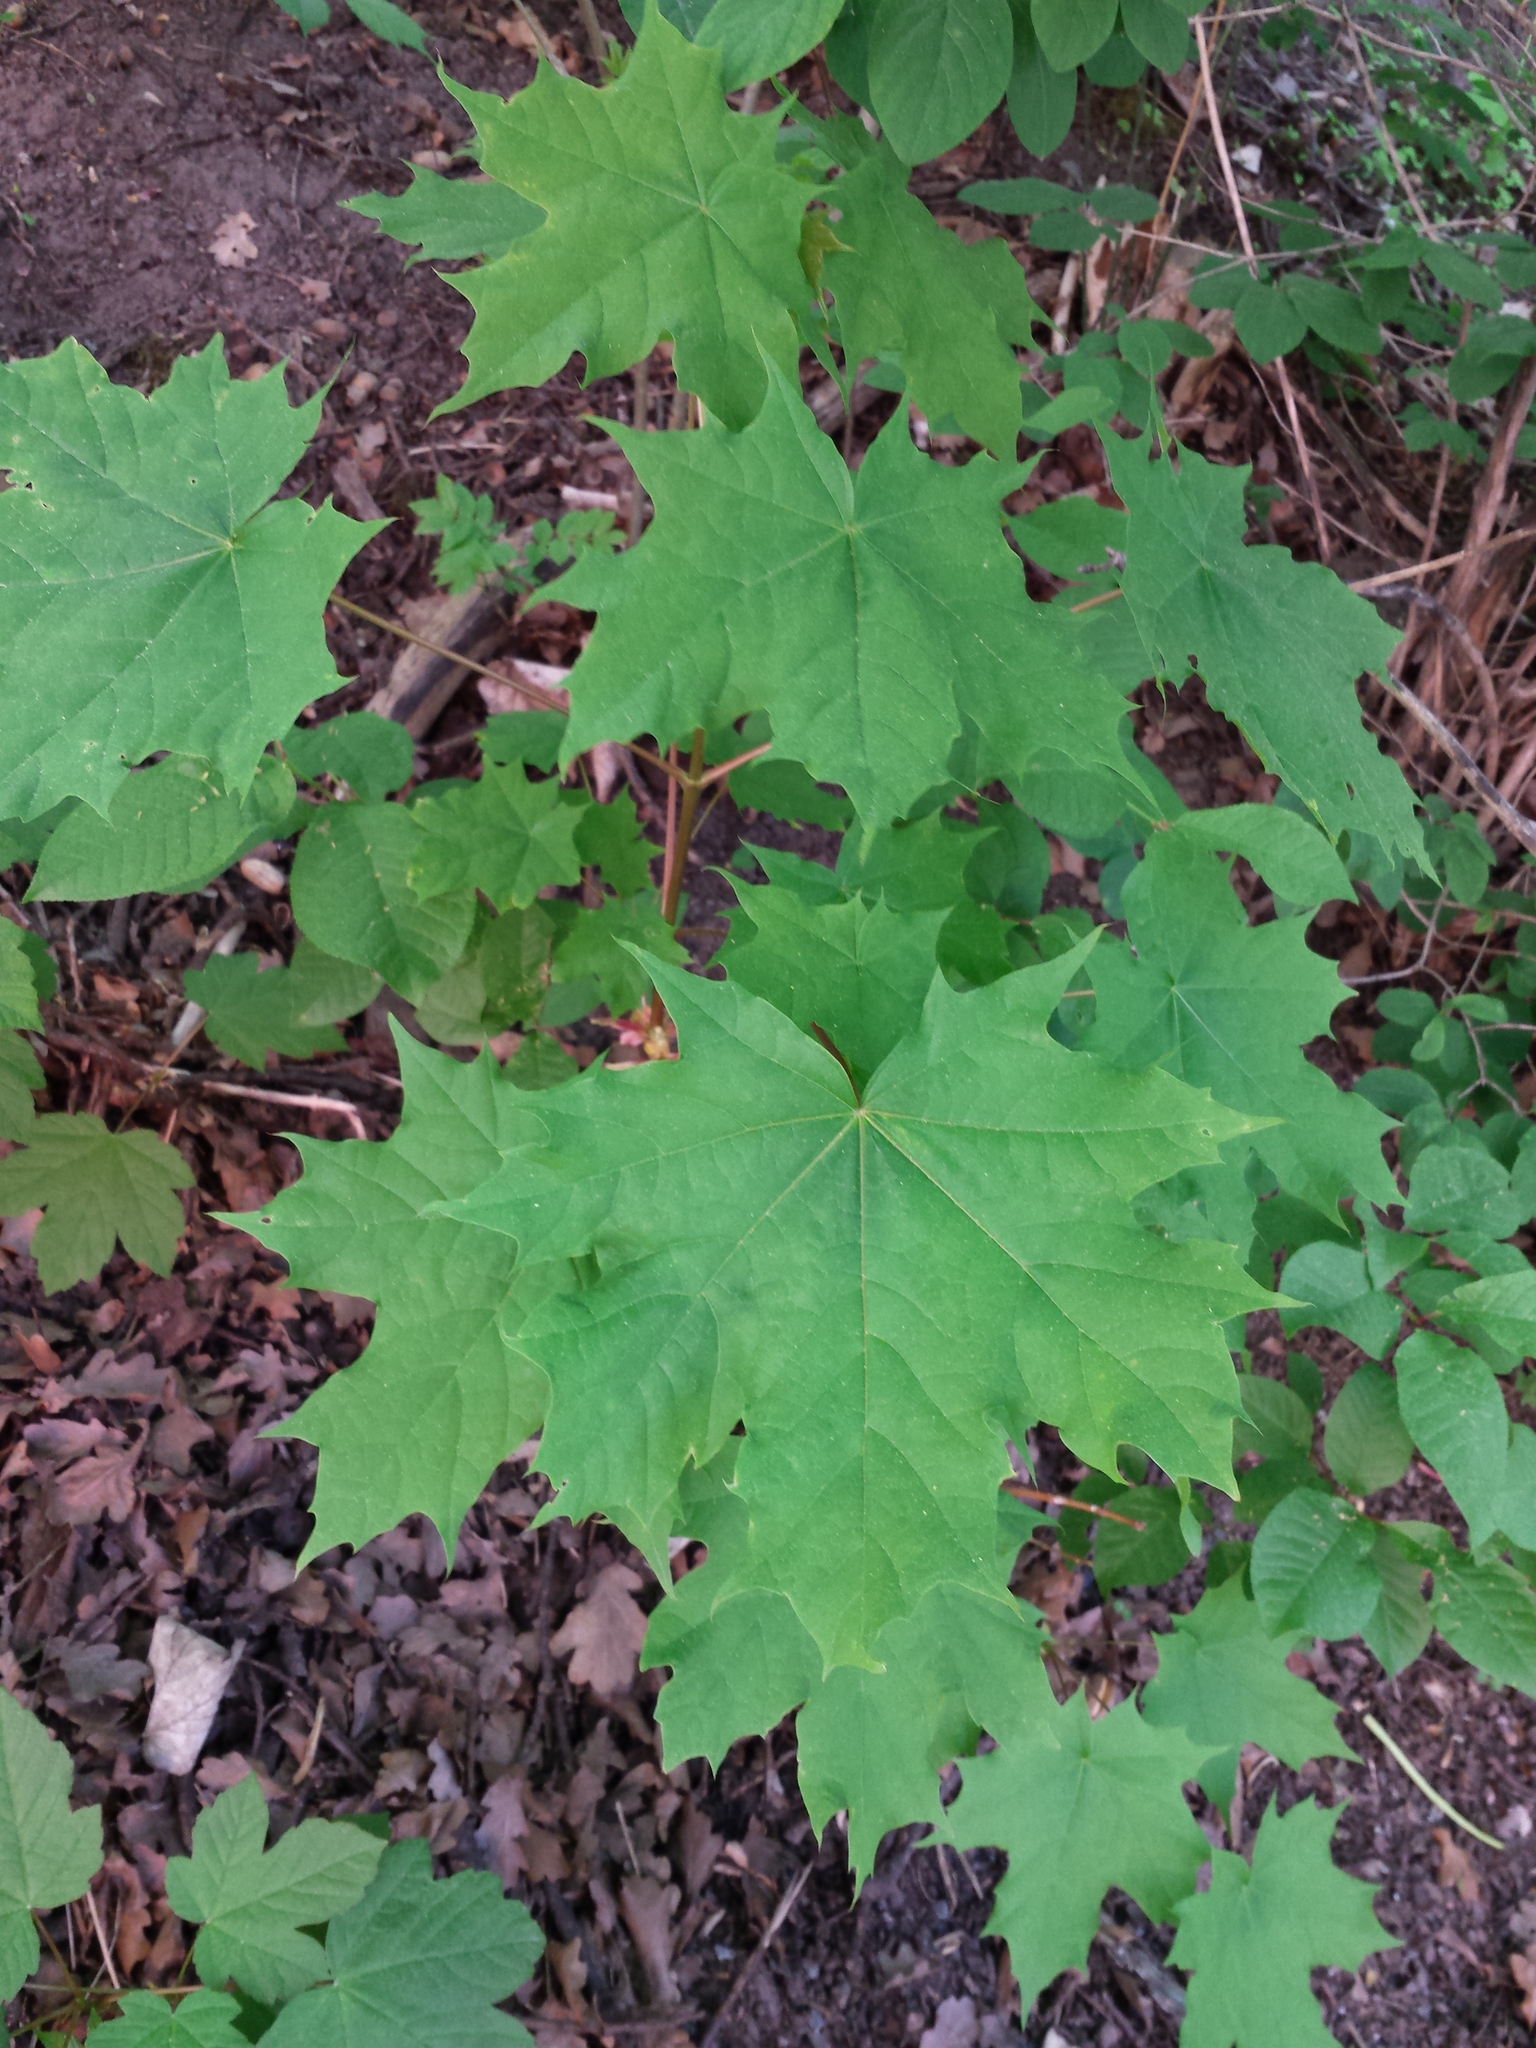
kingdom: Plantae
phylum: Tracheophyta
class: Magnoliopsida
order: Sapindales
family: Sapindaceae
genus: Acer
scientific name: Acer platanoides
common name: Norway maple
